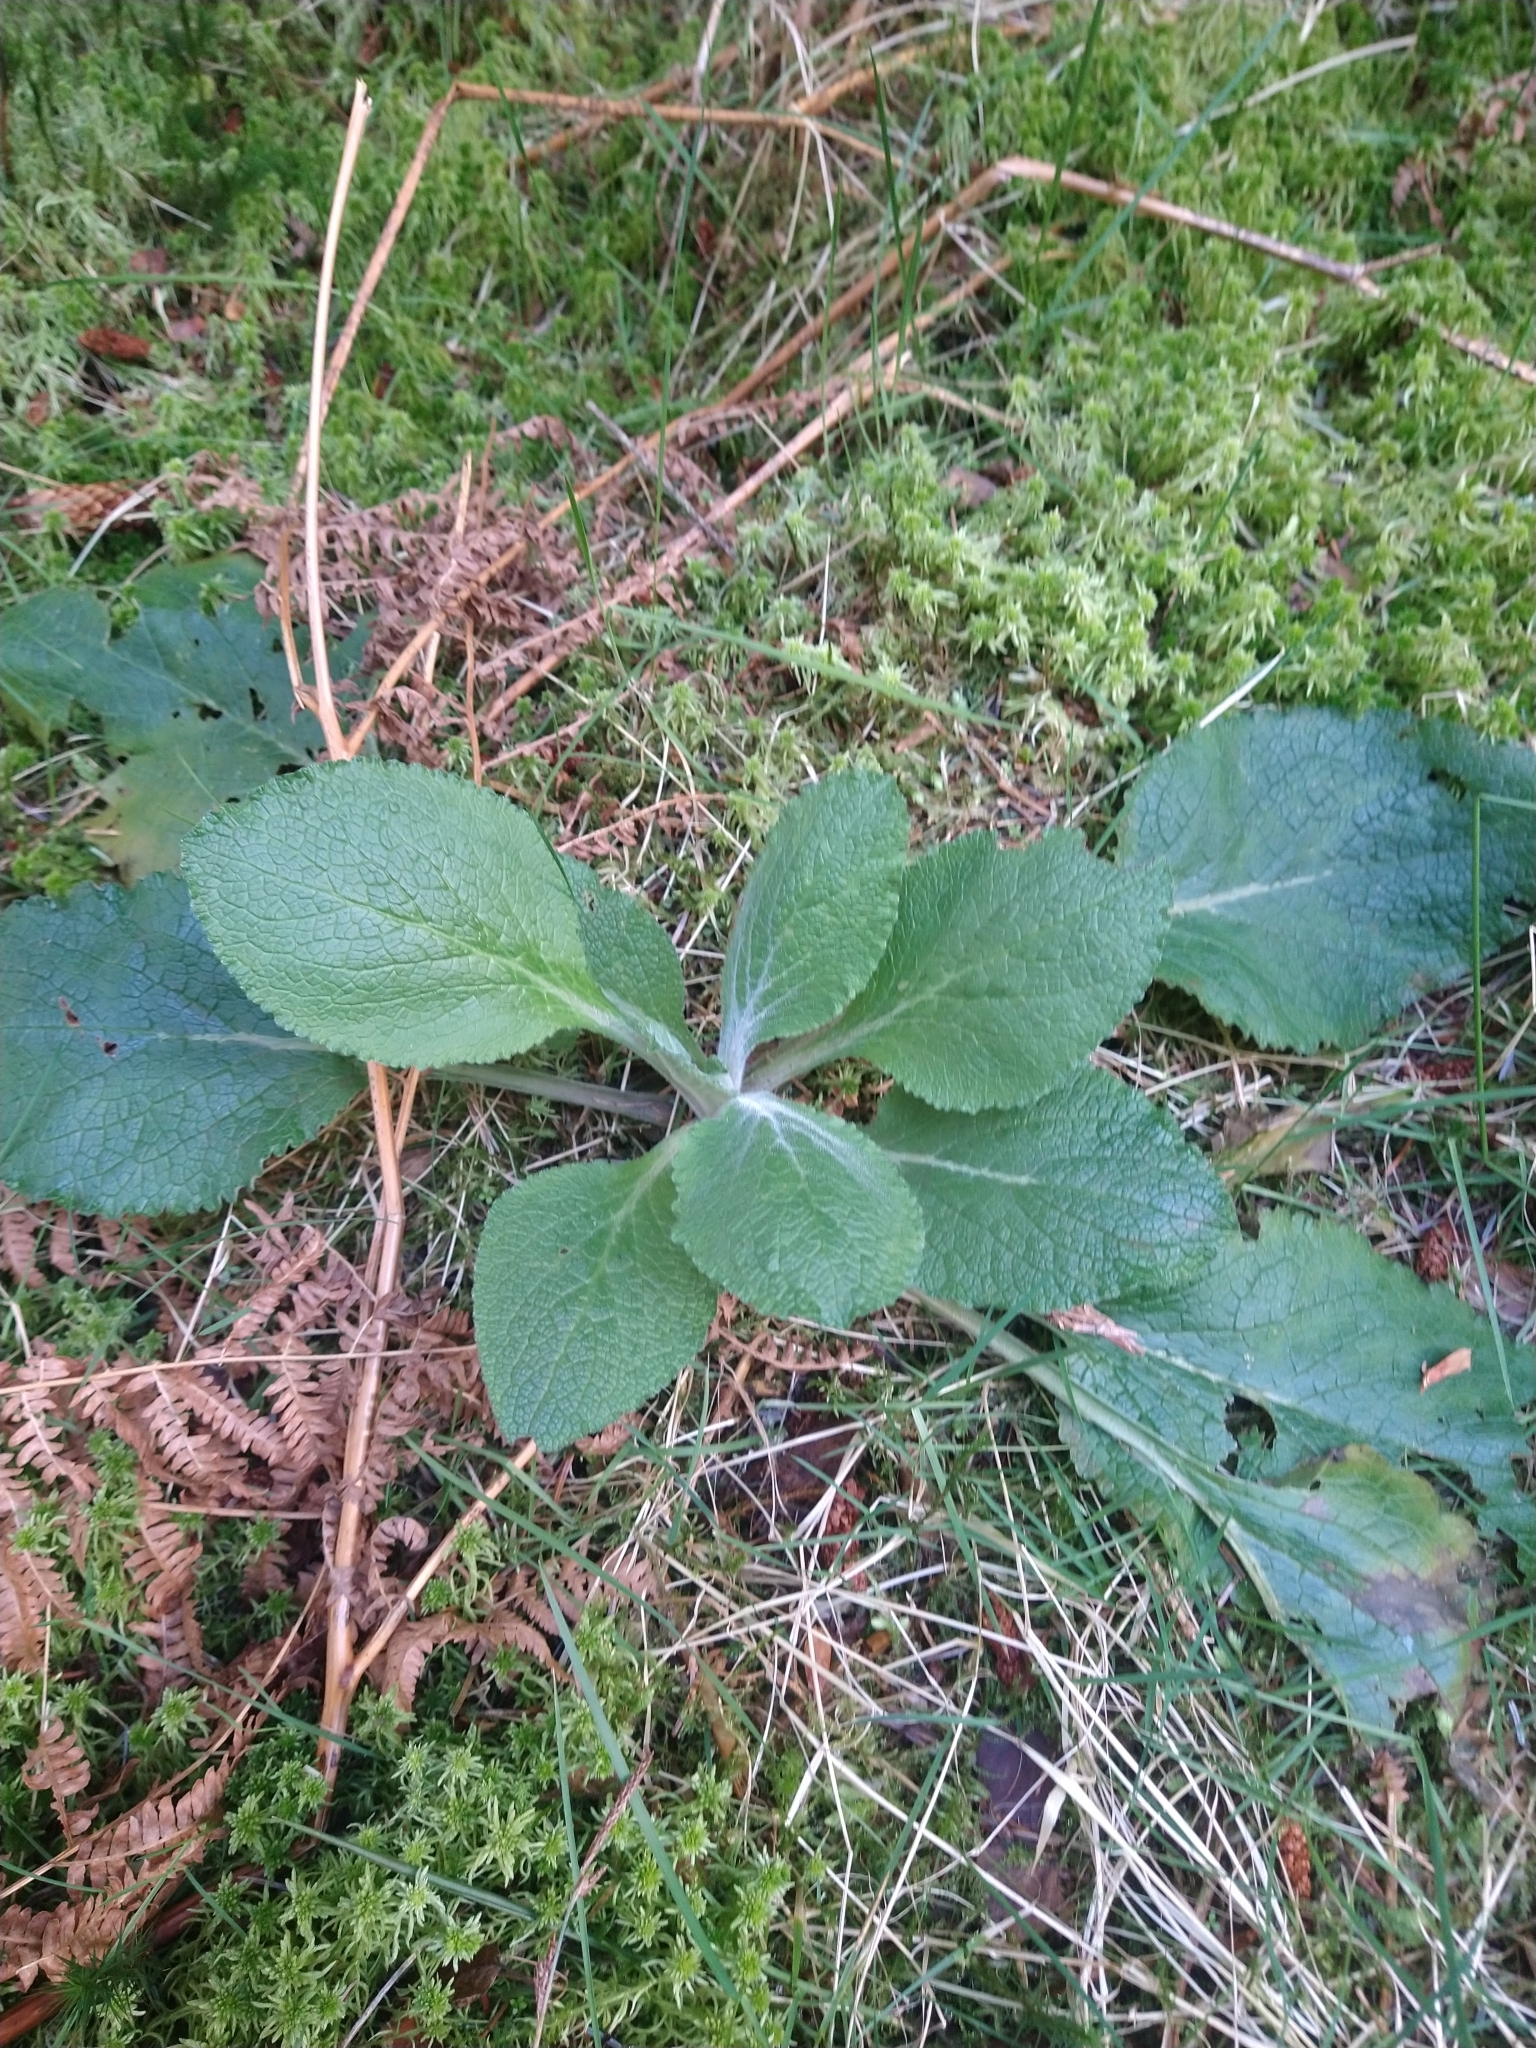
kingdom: Plantae
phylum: Tracheophyta
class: Magnoliopsida
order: Lamiales
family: Plantaginaceae
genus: Digitalis
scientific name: Digitalis purpurea
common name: Foxglove
